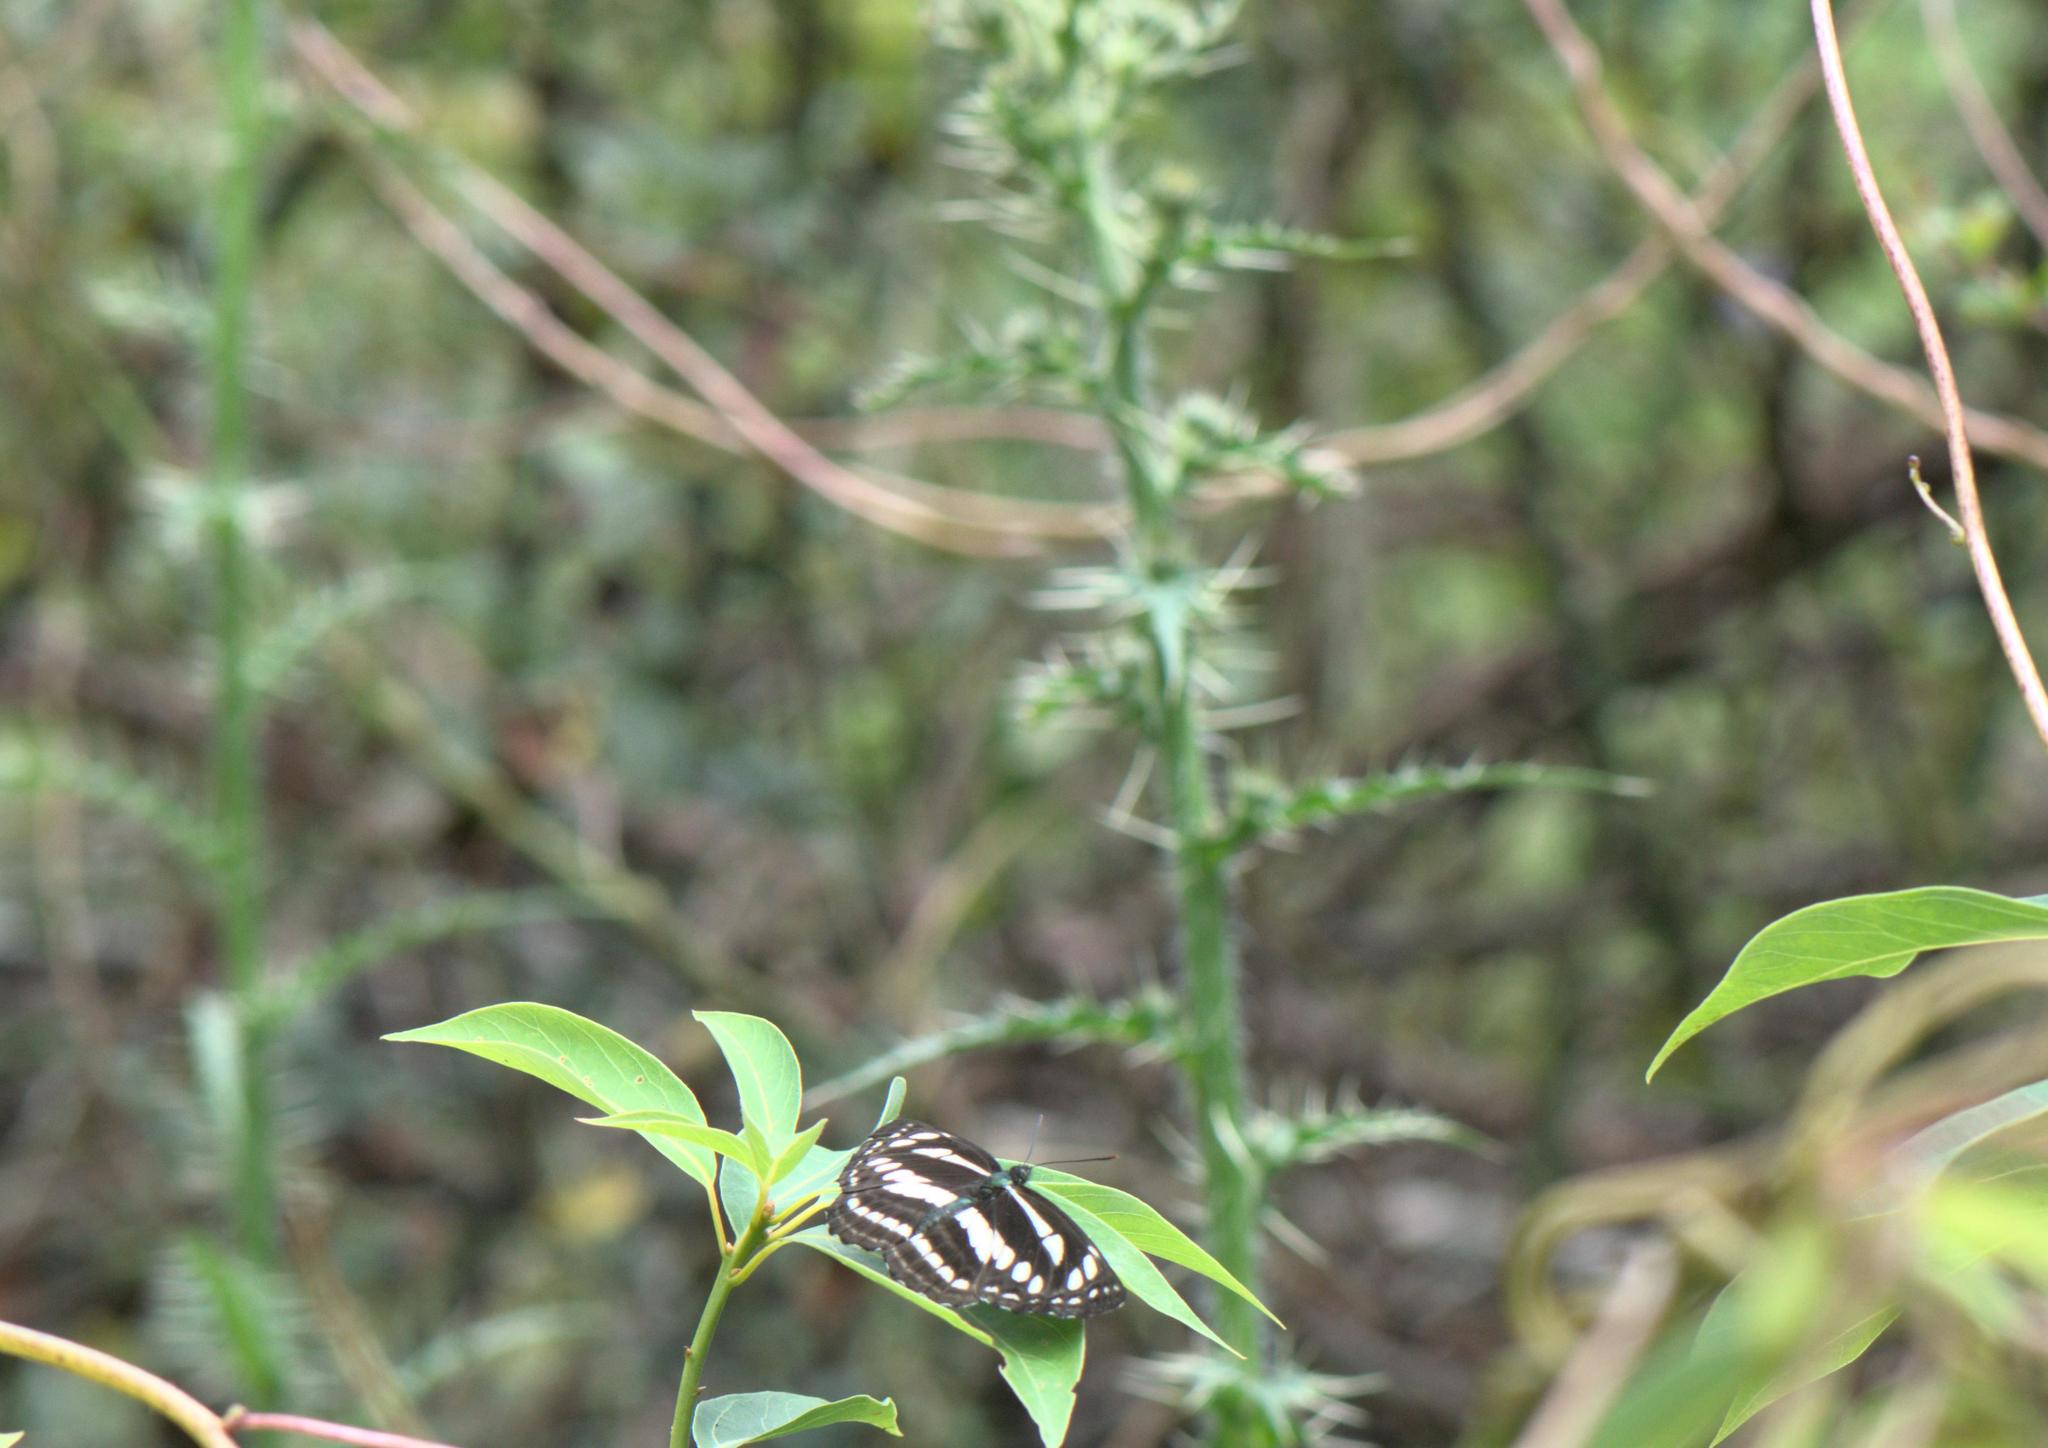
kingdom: Animalia
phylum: Arthropoda
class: Insecta
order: Lepidoptera
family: Nymphalidae
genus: Neptis
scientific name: Neptis soma
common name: Cream-spotted sailor
